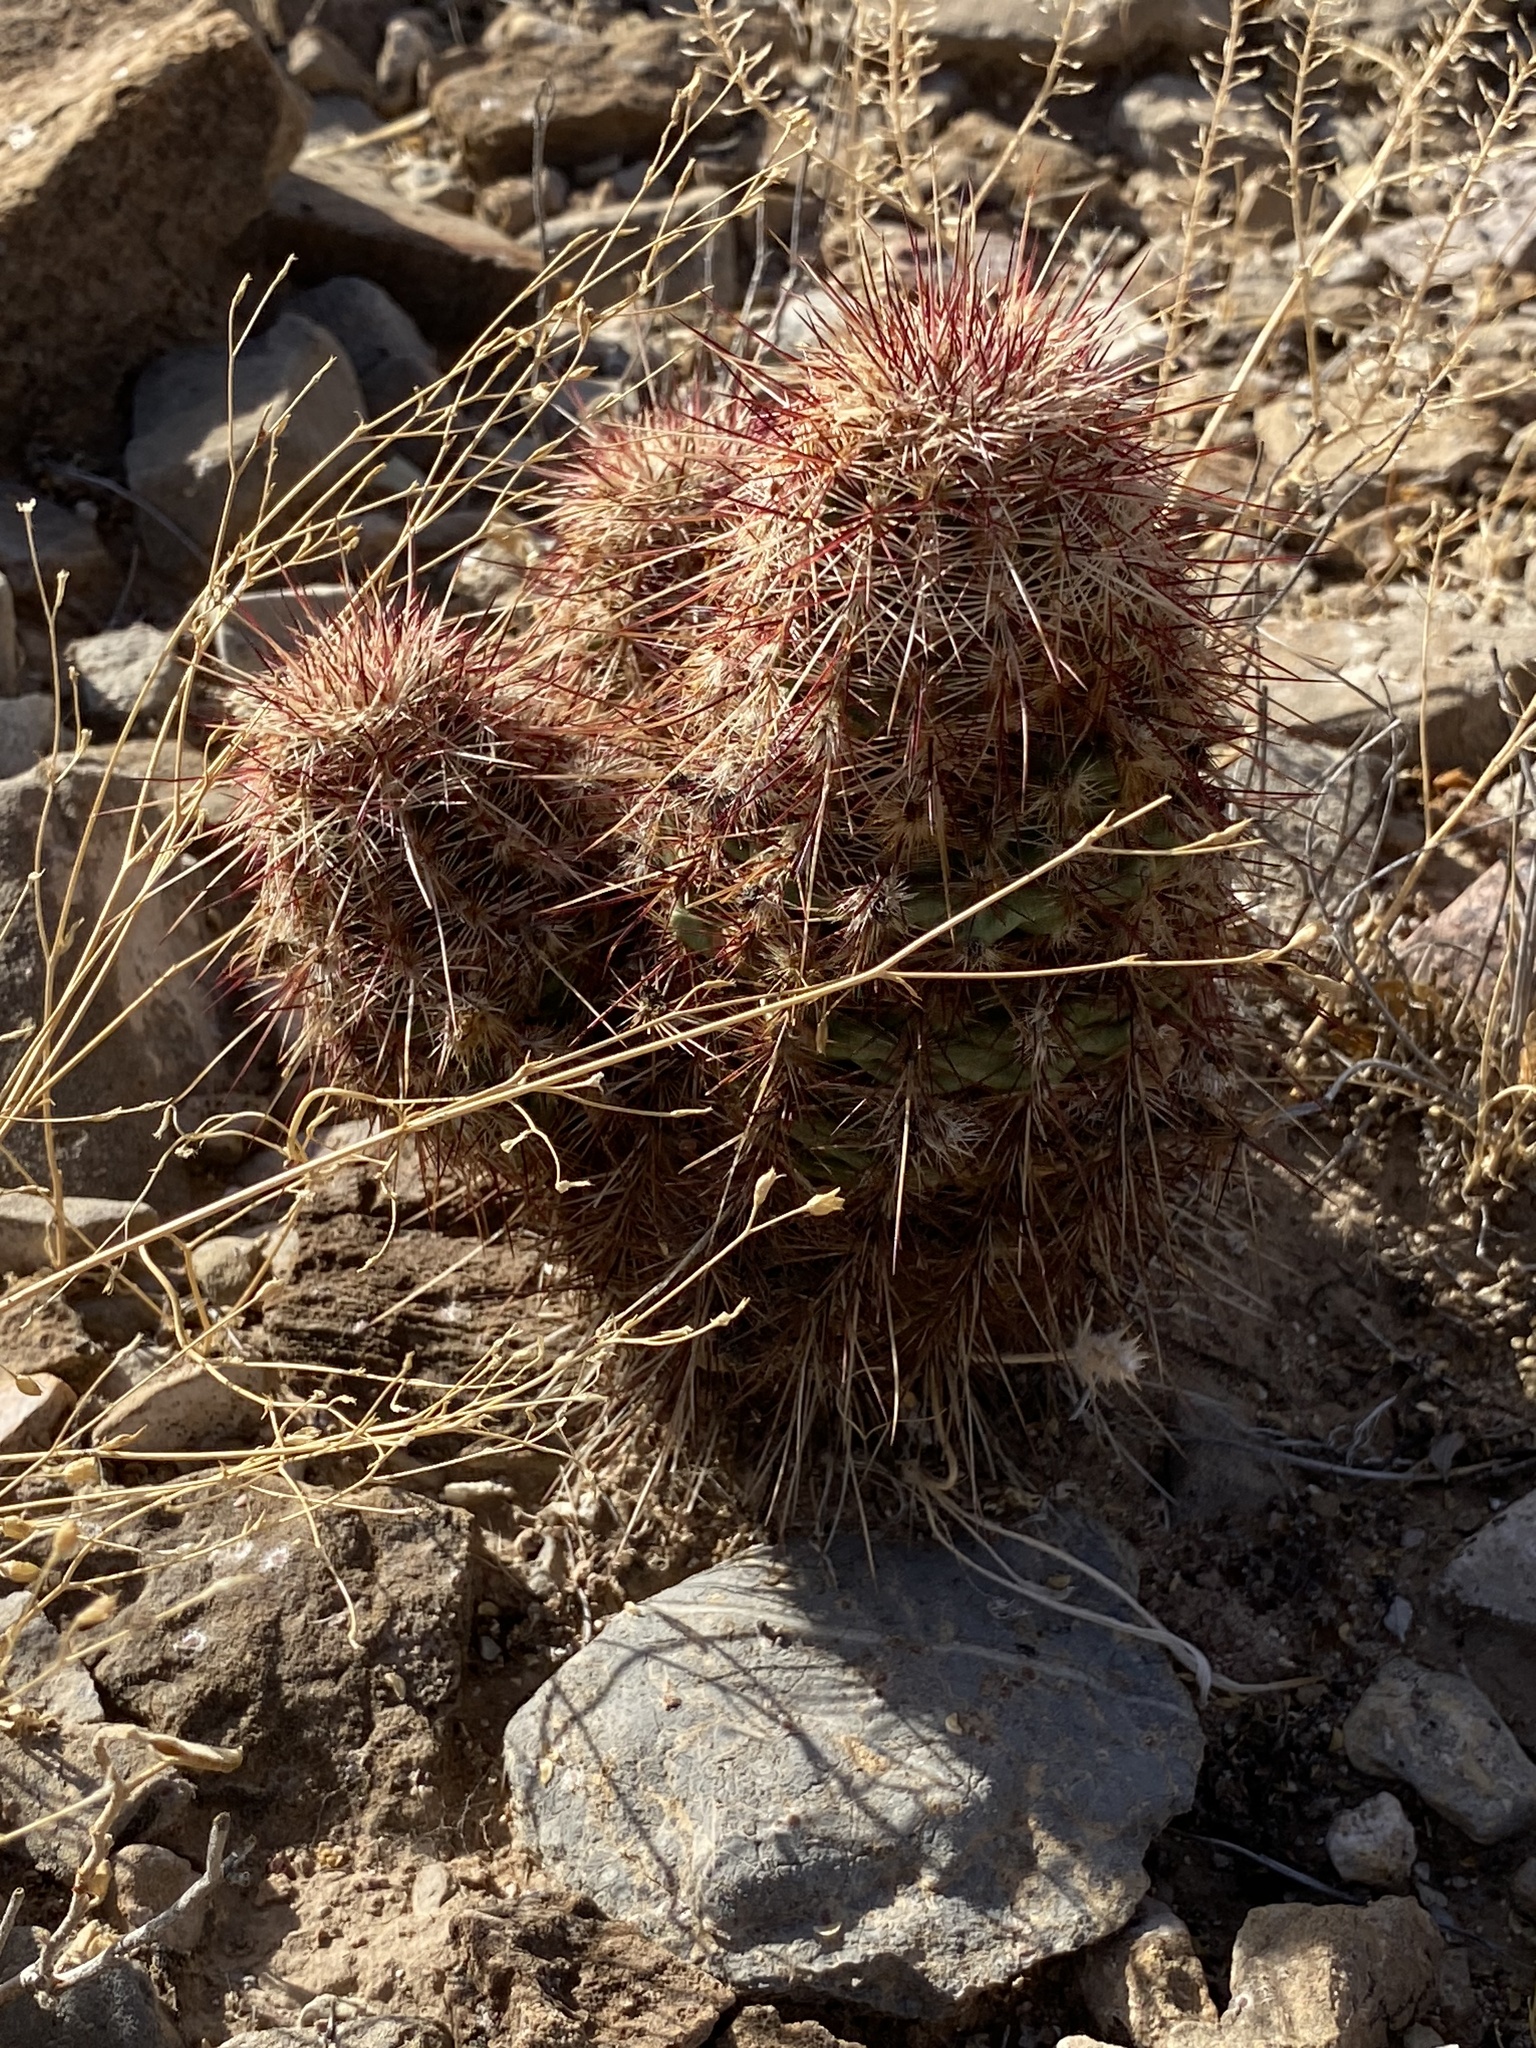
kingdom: Plantae
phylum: Tracheophyta
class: Magnoliopsida
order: Caryophyllales
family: Cactaceae
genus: Echinocereus
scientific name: Echinocereus viridiflorus
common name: Nylon hedgehog cactus
